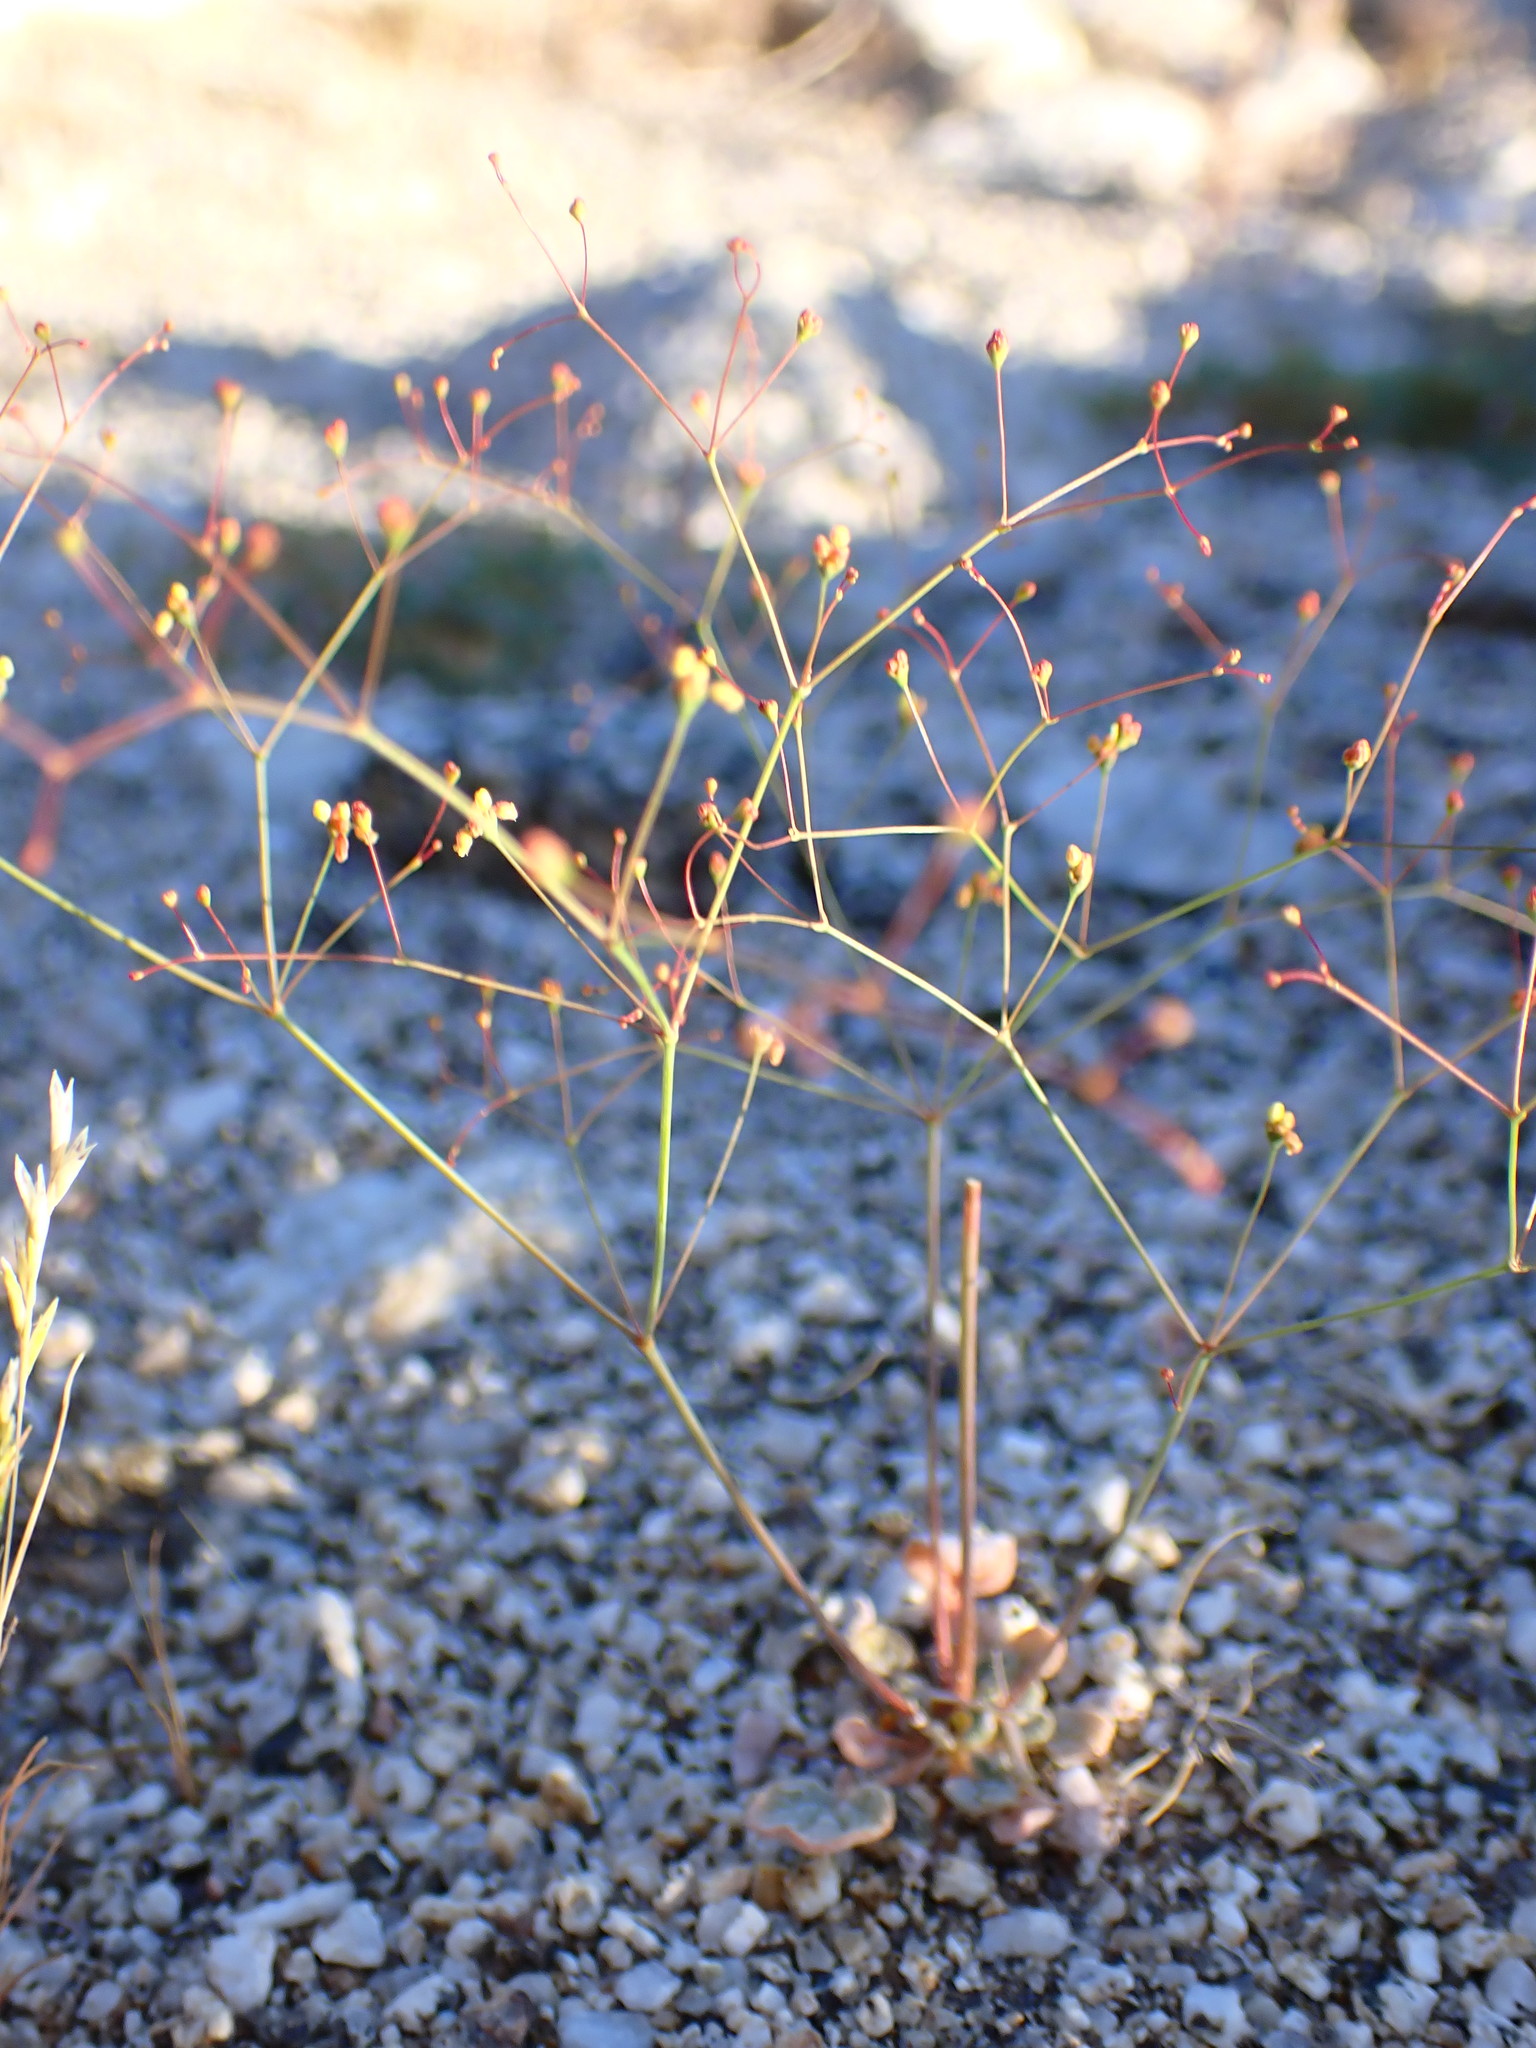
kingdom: Plantae
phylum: Tracheophyta
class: Magnoliopsida
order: Caryophyllales
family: Polygonaceae
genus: Eriogonum
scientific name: Eriogonum thomasii
